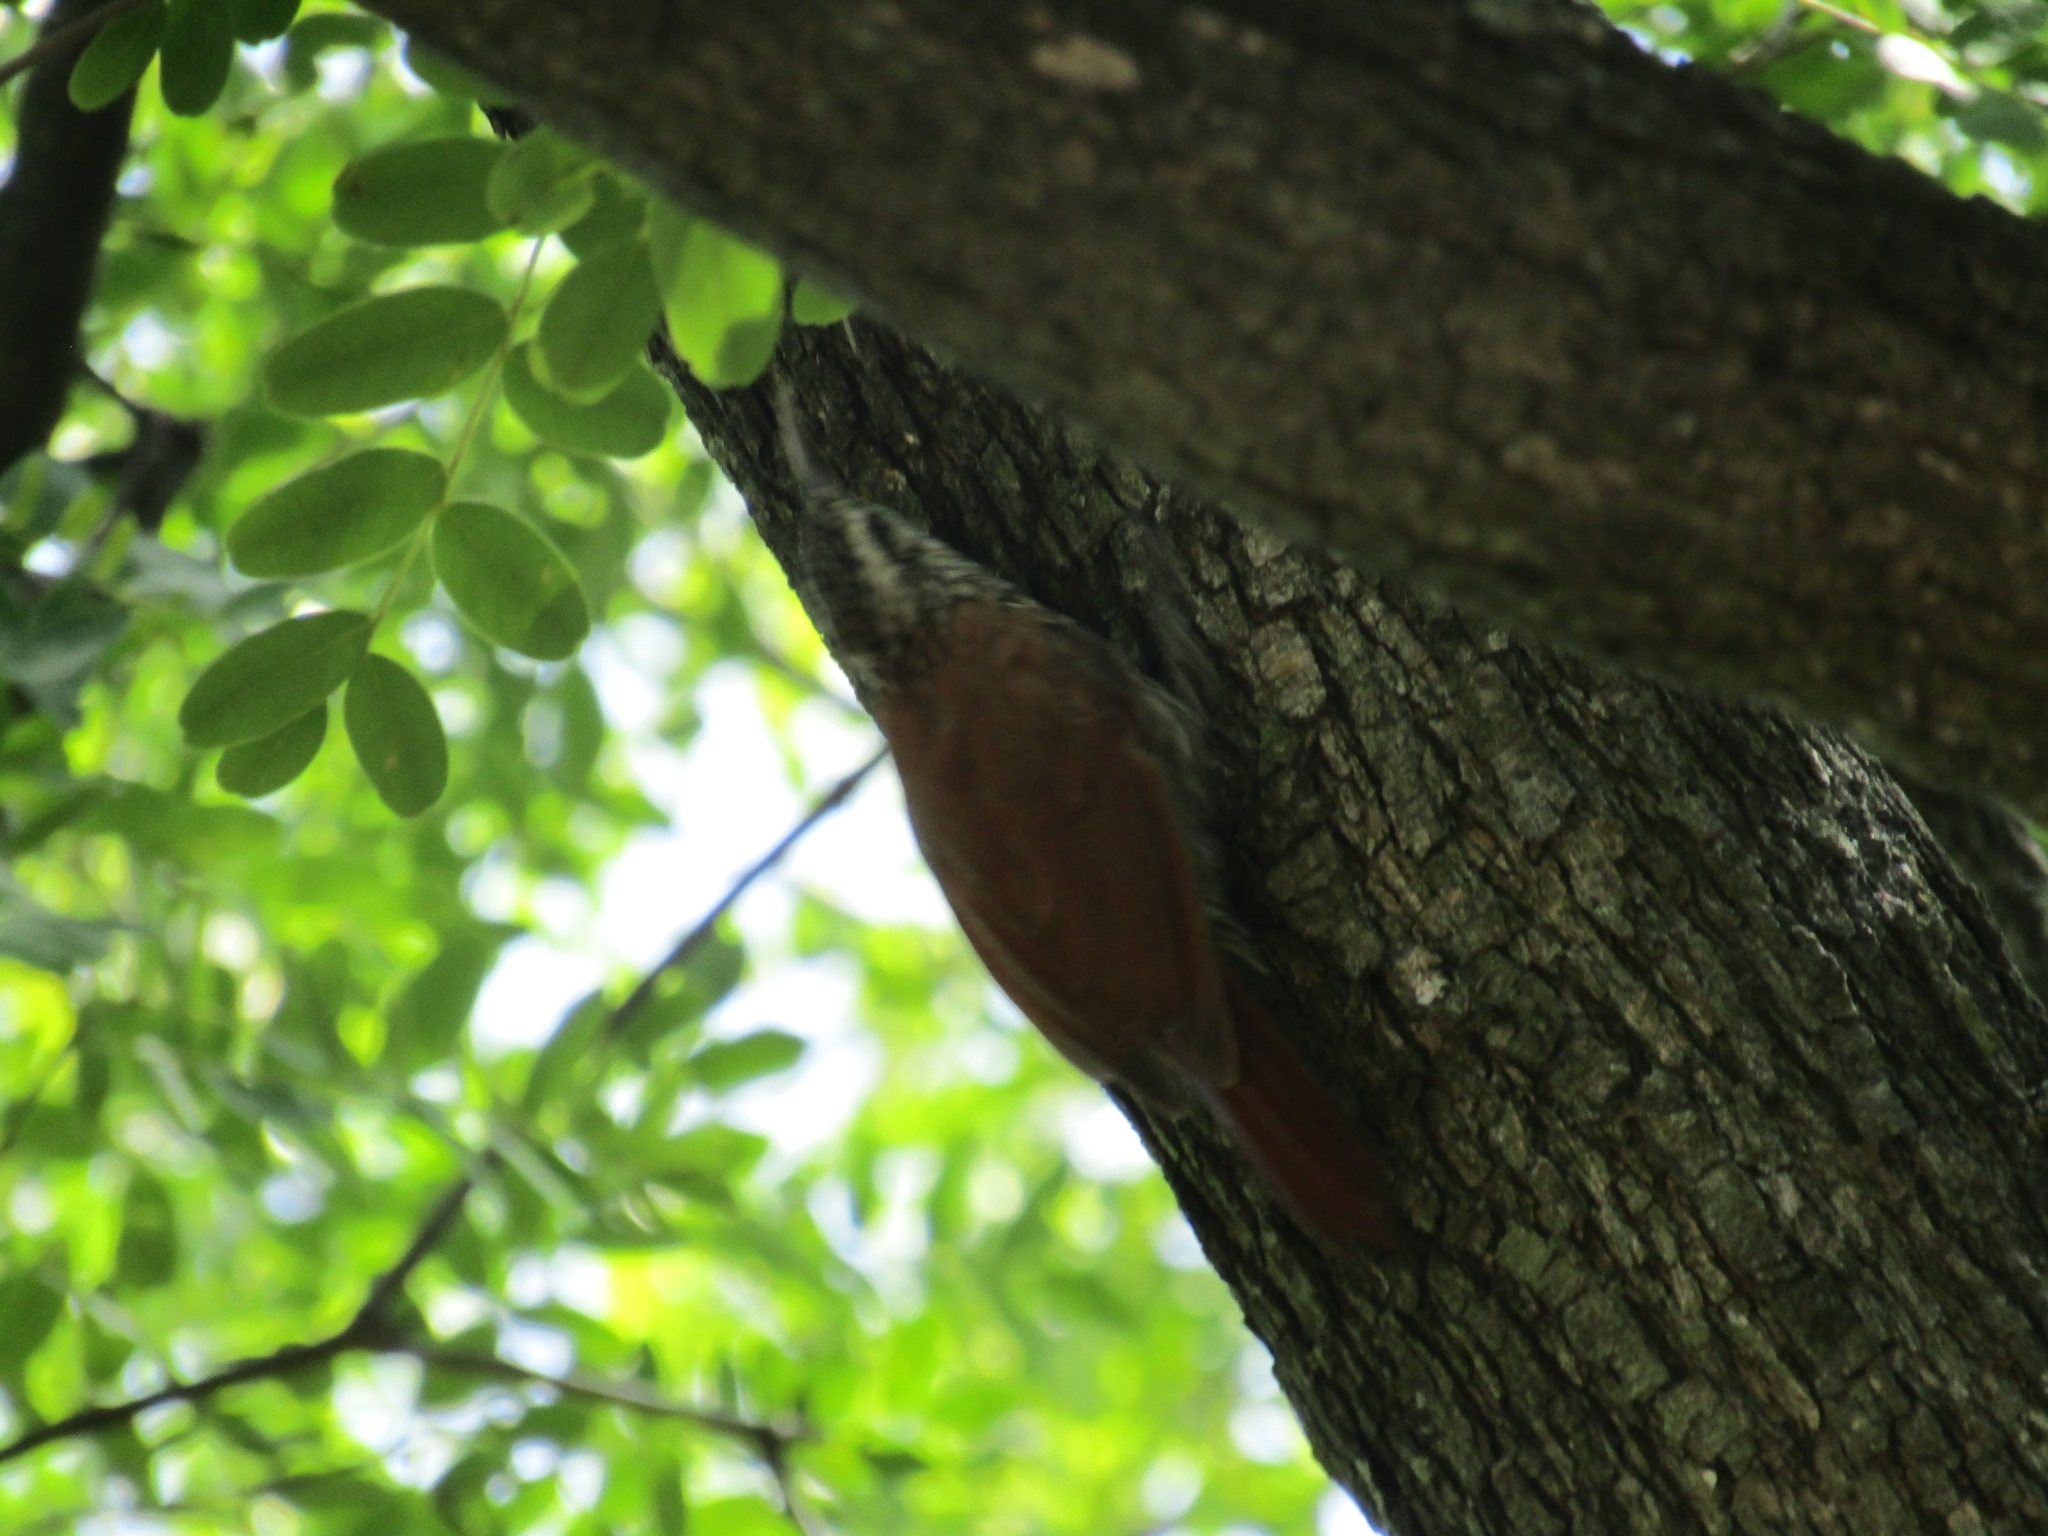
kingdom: Animalia
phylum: Chordata
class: Aves
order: Passeriformes
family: Furnariidae
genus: Lepidocolaptes
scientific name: Lepidocolaptes angustirostris
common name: Narrow-billed woodcreeper
